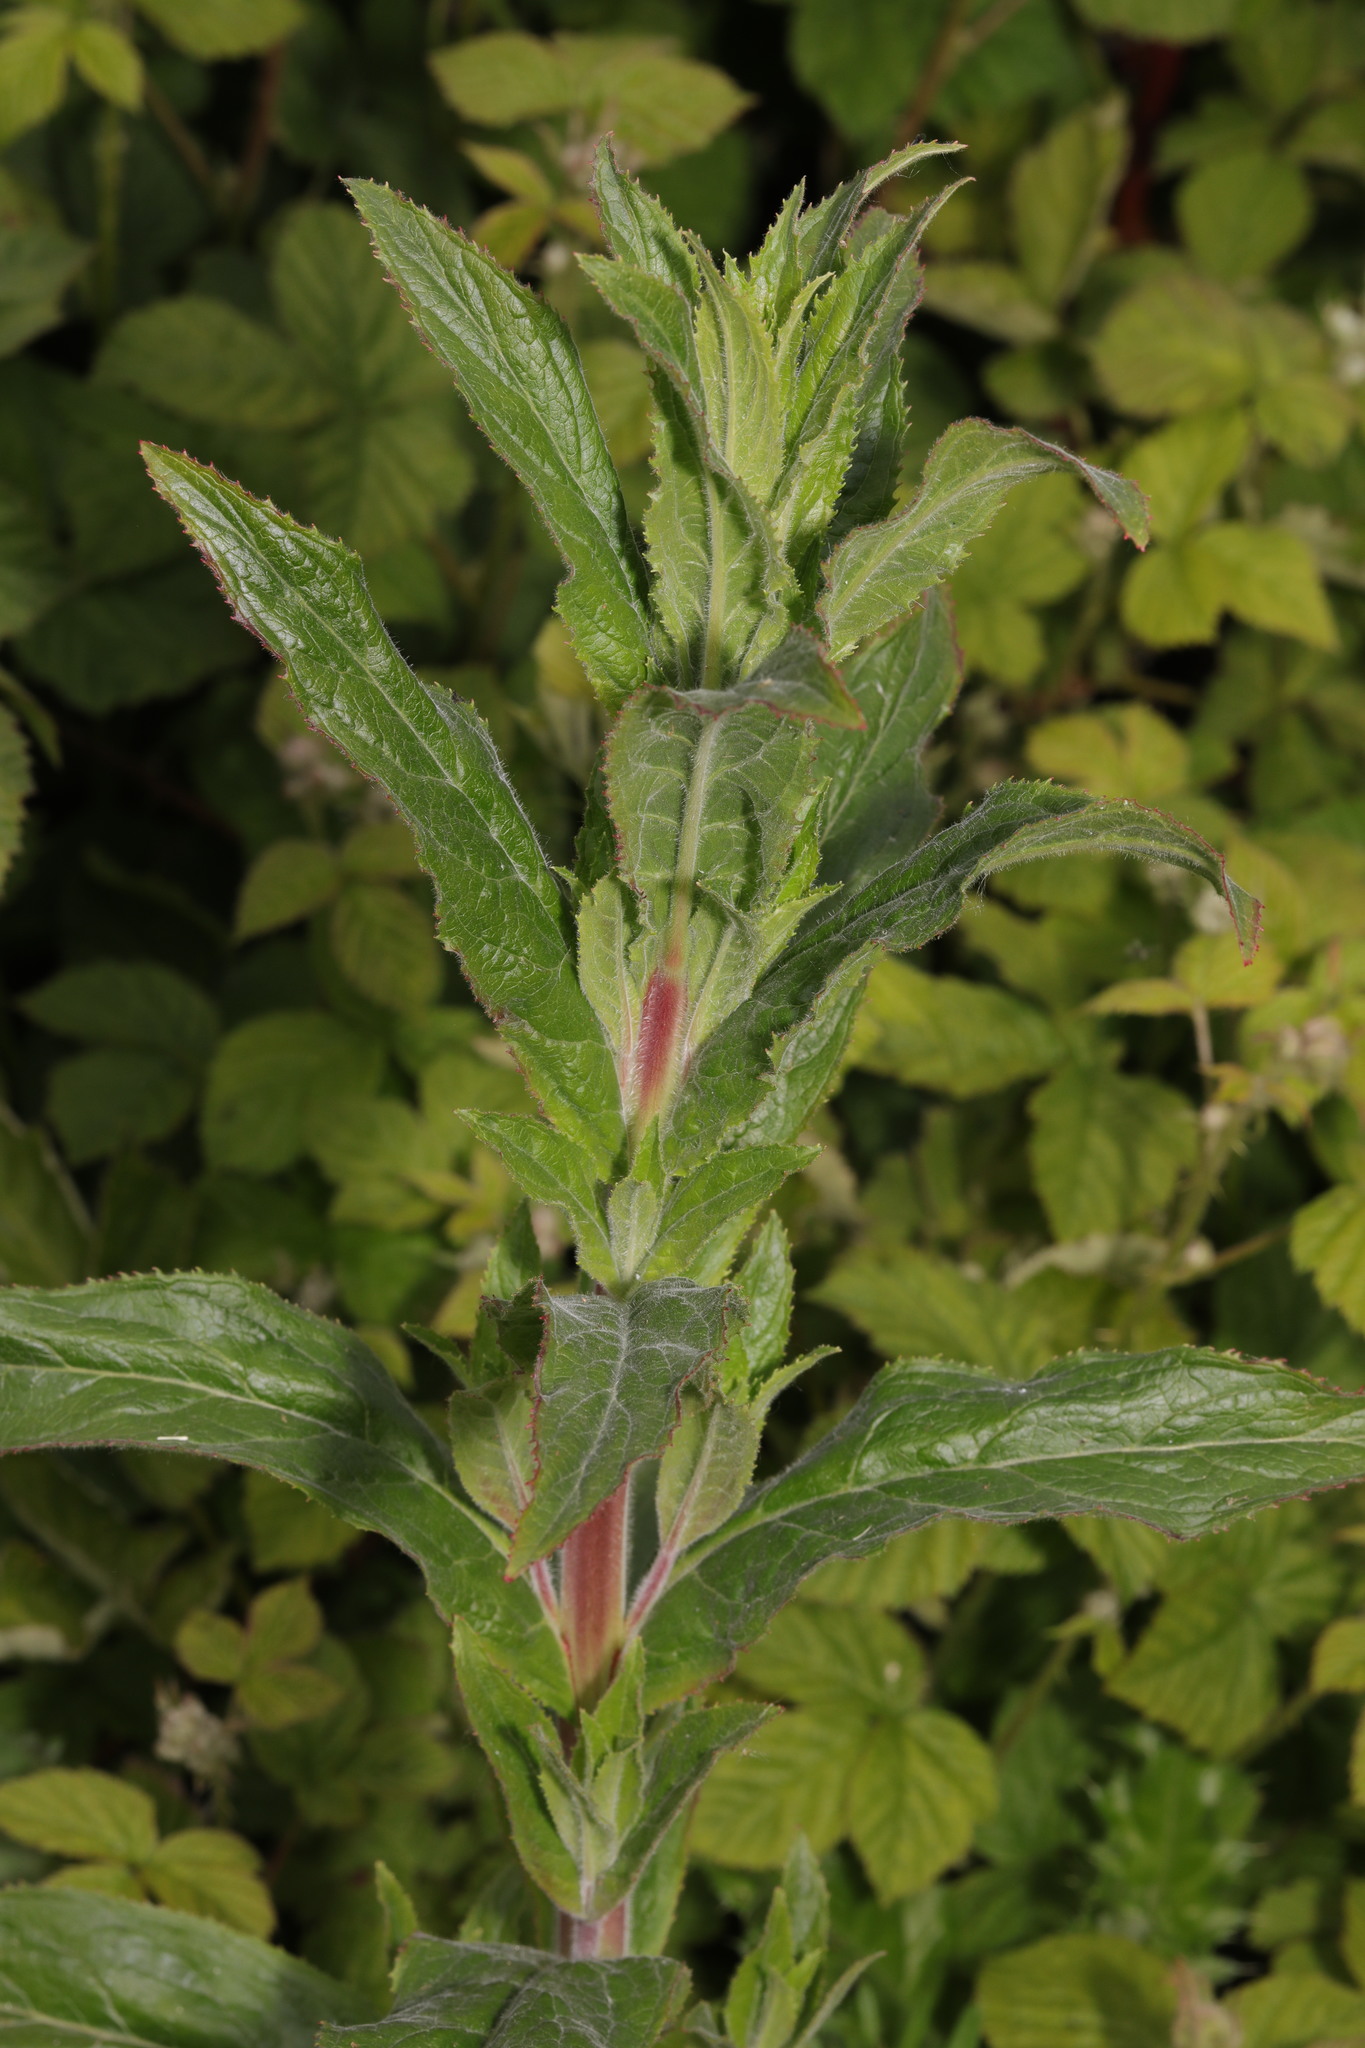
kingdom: Plantae
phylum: Tracheophyta
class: Magnoliopsida
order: Myrtales
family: Onagraceae
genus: Epilobium
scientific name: Epilobium hirsutum
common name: Great willowherb
